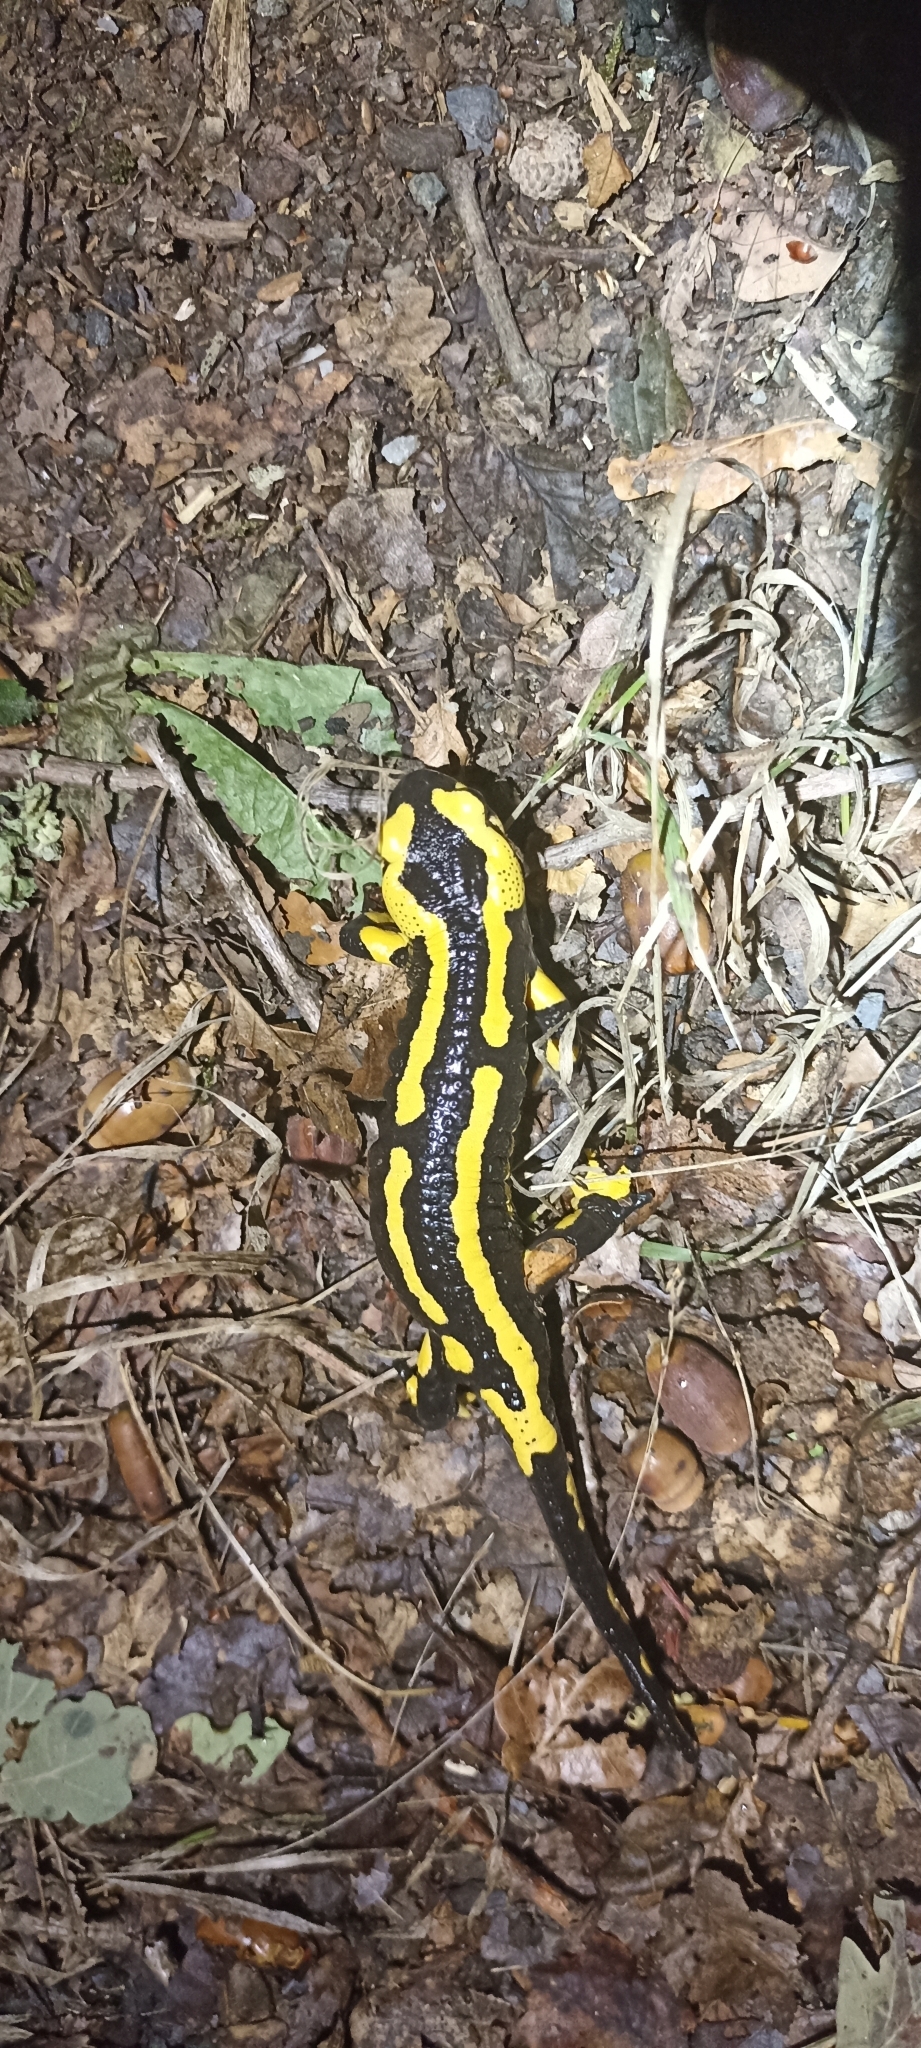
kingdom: Animalia
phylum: Chordata
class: Amphibia
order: Caudata
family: Salamandridae
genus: Salamandra
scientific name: Salamandra salamandra
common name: Fire salamander
